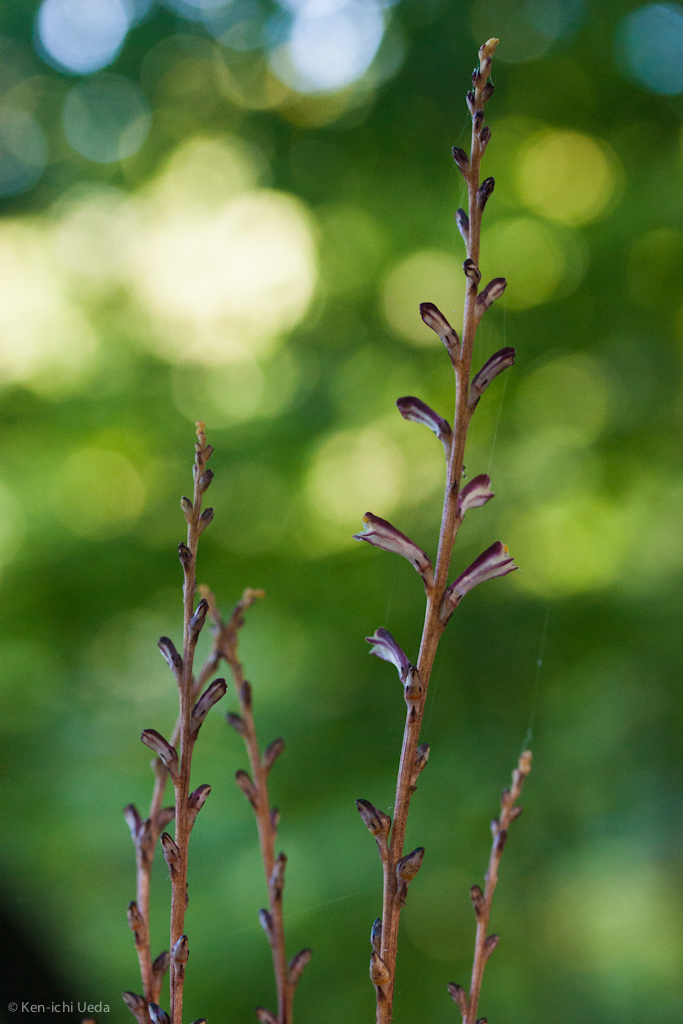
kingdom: Plantae
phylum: Tracheophyta
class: Magnoliopsida
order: Lamiales
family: Orobanchaceae
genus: Epifagus
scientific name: Epifagus virginiana
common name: Beechdrops
